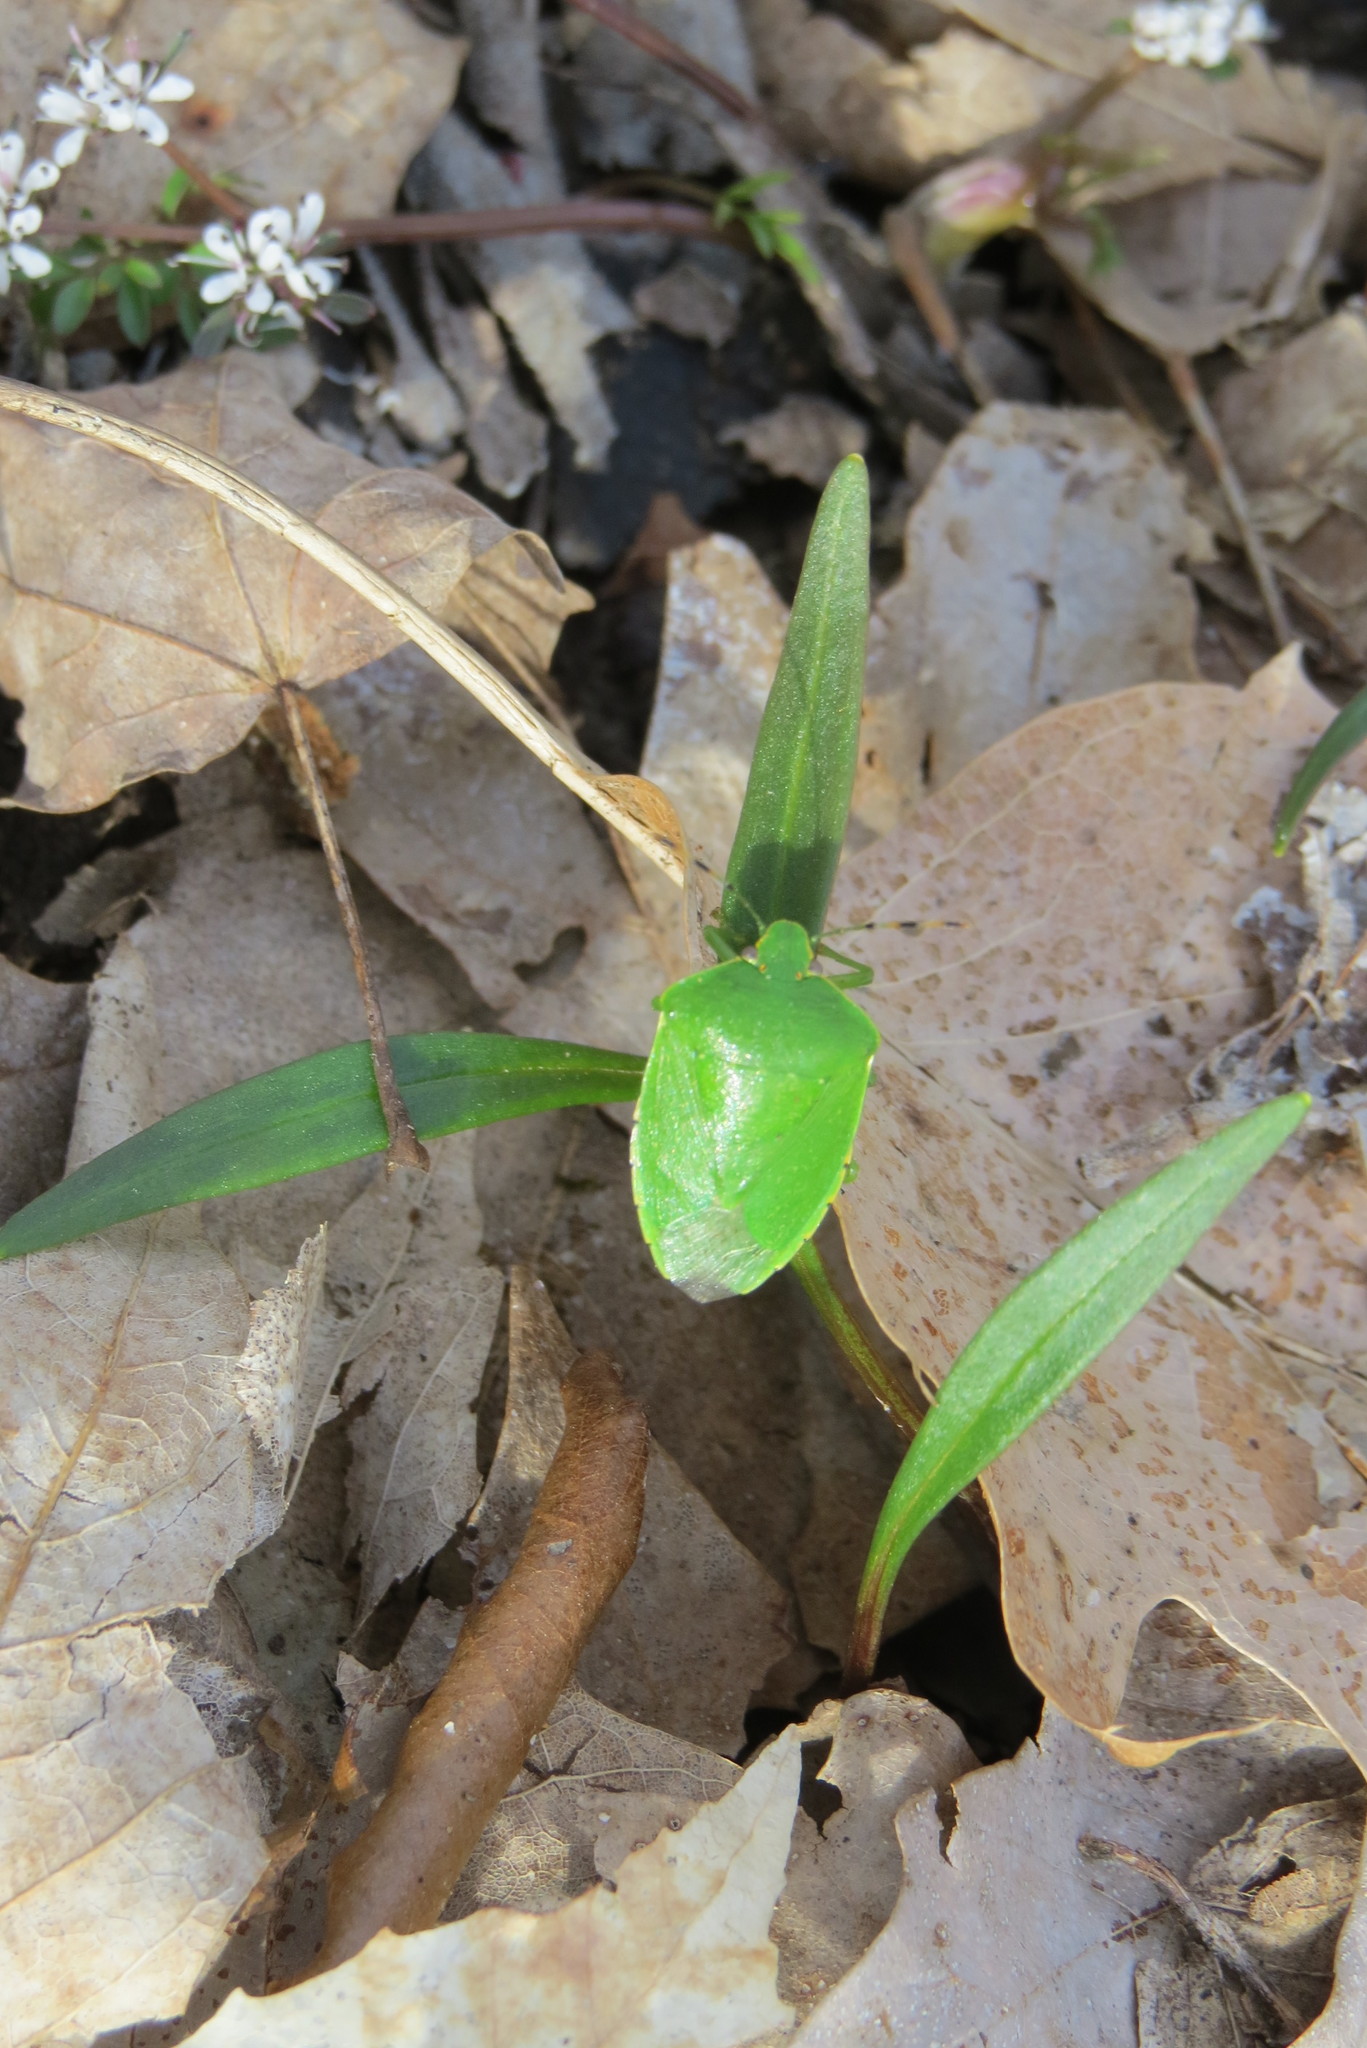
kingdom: Animalia
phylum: Arthropoda
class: Insecta
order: Hemiptera
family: Pentatomidae
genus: Chinavia
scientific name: Chinavia hilaris
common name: Green stink bug
